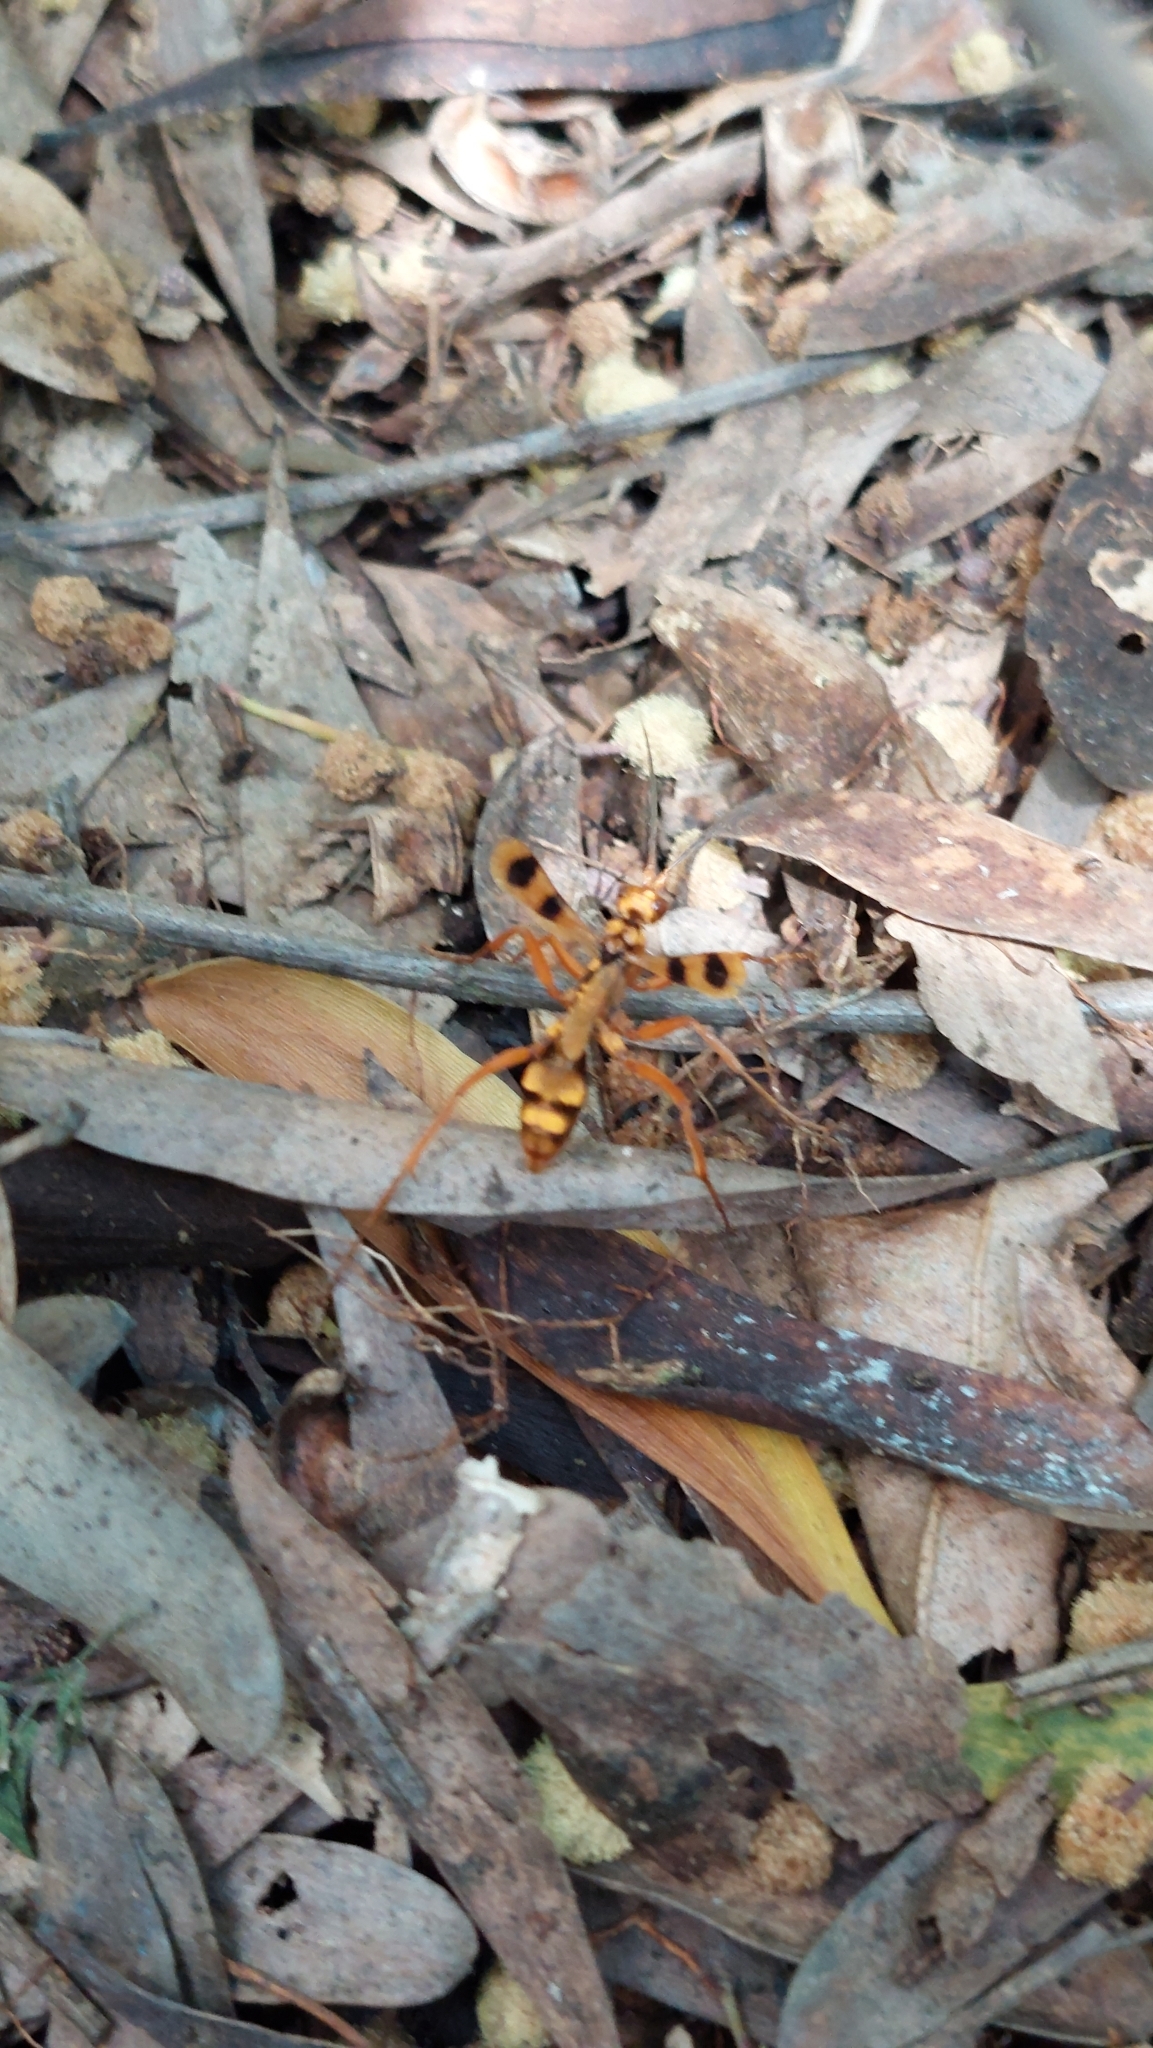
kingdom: Animalia
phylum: Arthropoda
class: Insecta
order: Hymenoptera
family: Pompilidae
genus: Sphictostethus
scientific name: Sphictostethus gravesii
